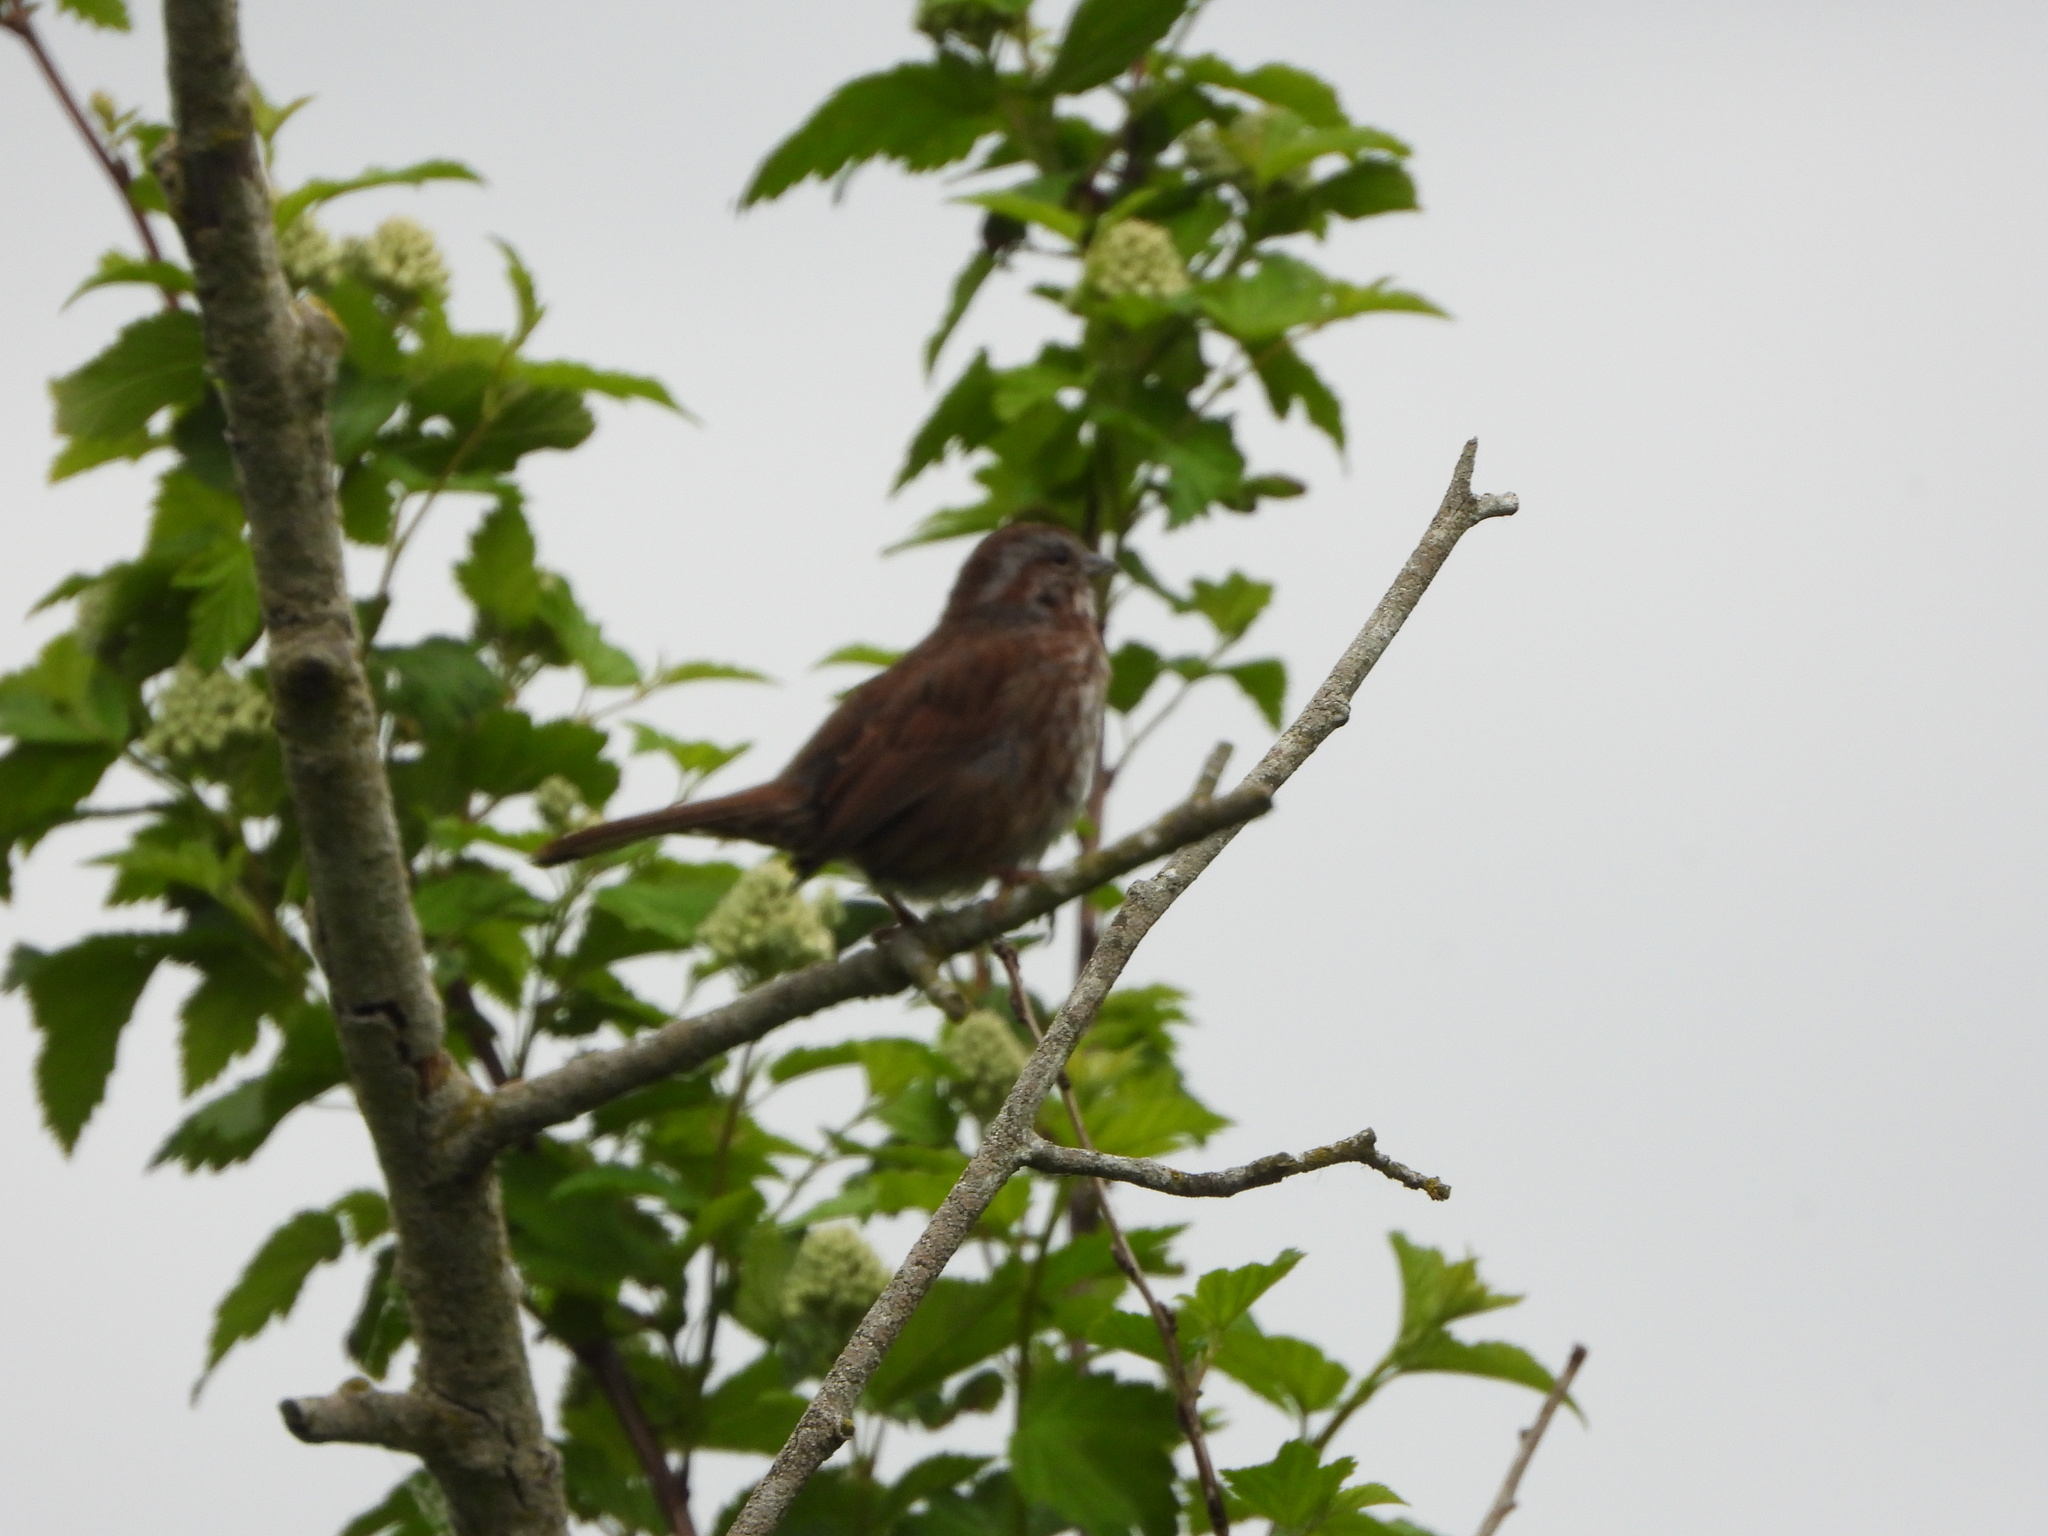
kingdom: Animalia
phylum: Chordata
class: Aves
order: Passeriformes
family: Passerellidae
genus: Melospiza
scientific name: Melospiza melodia
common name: Song sparrow
